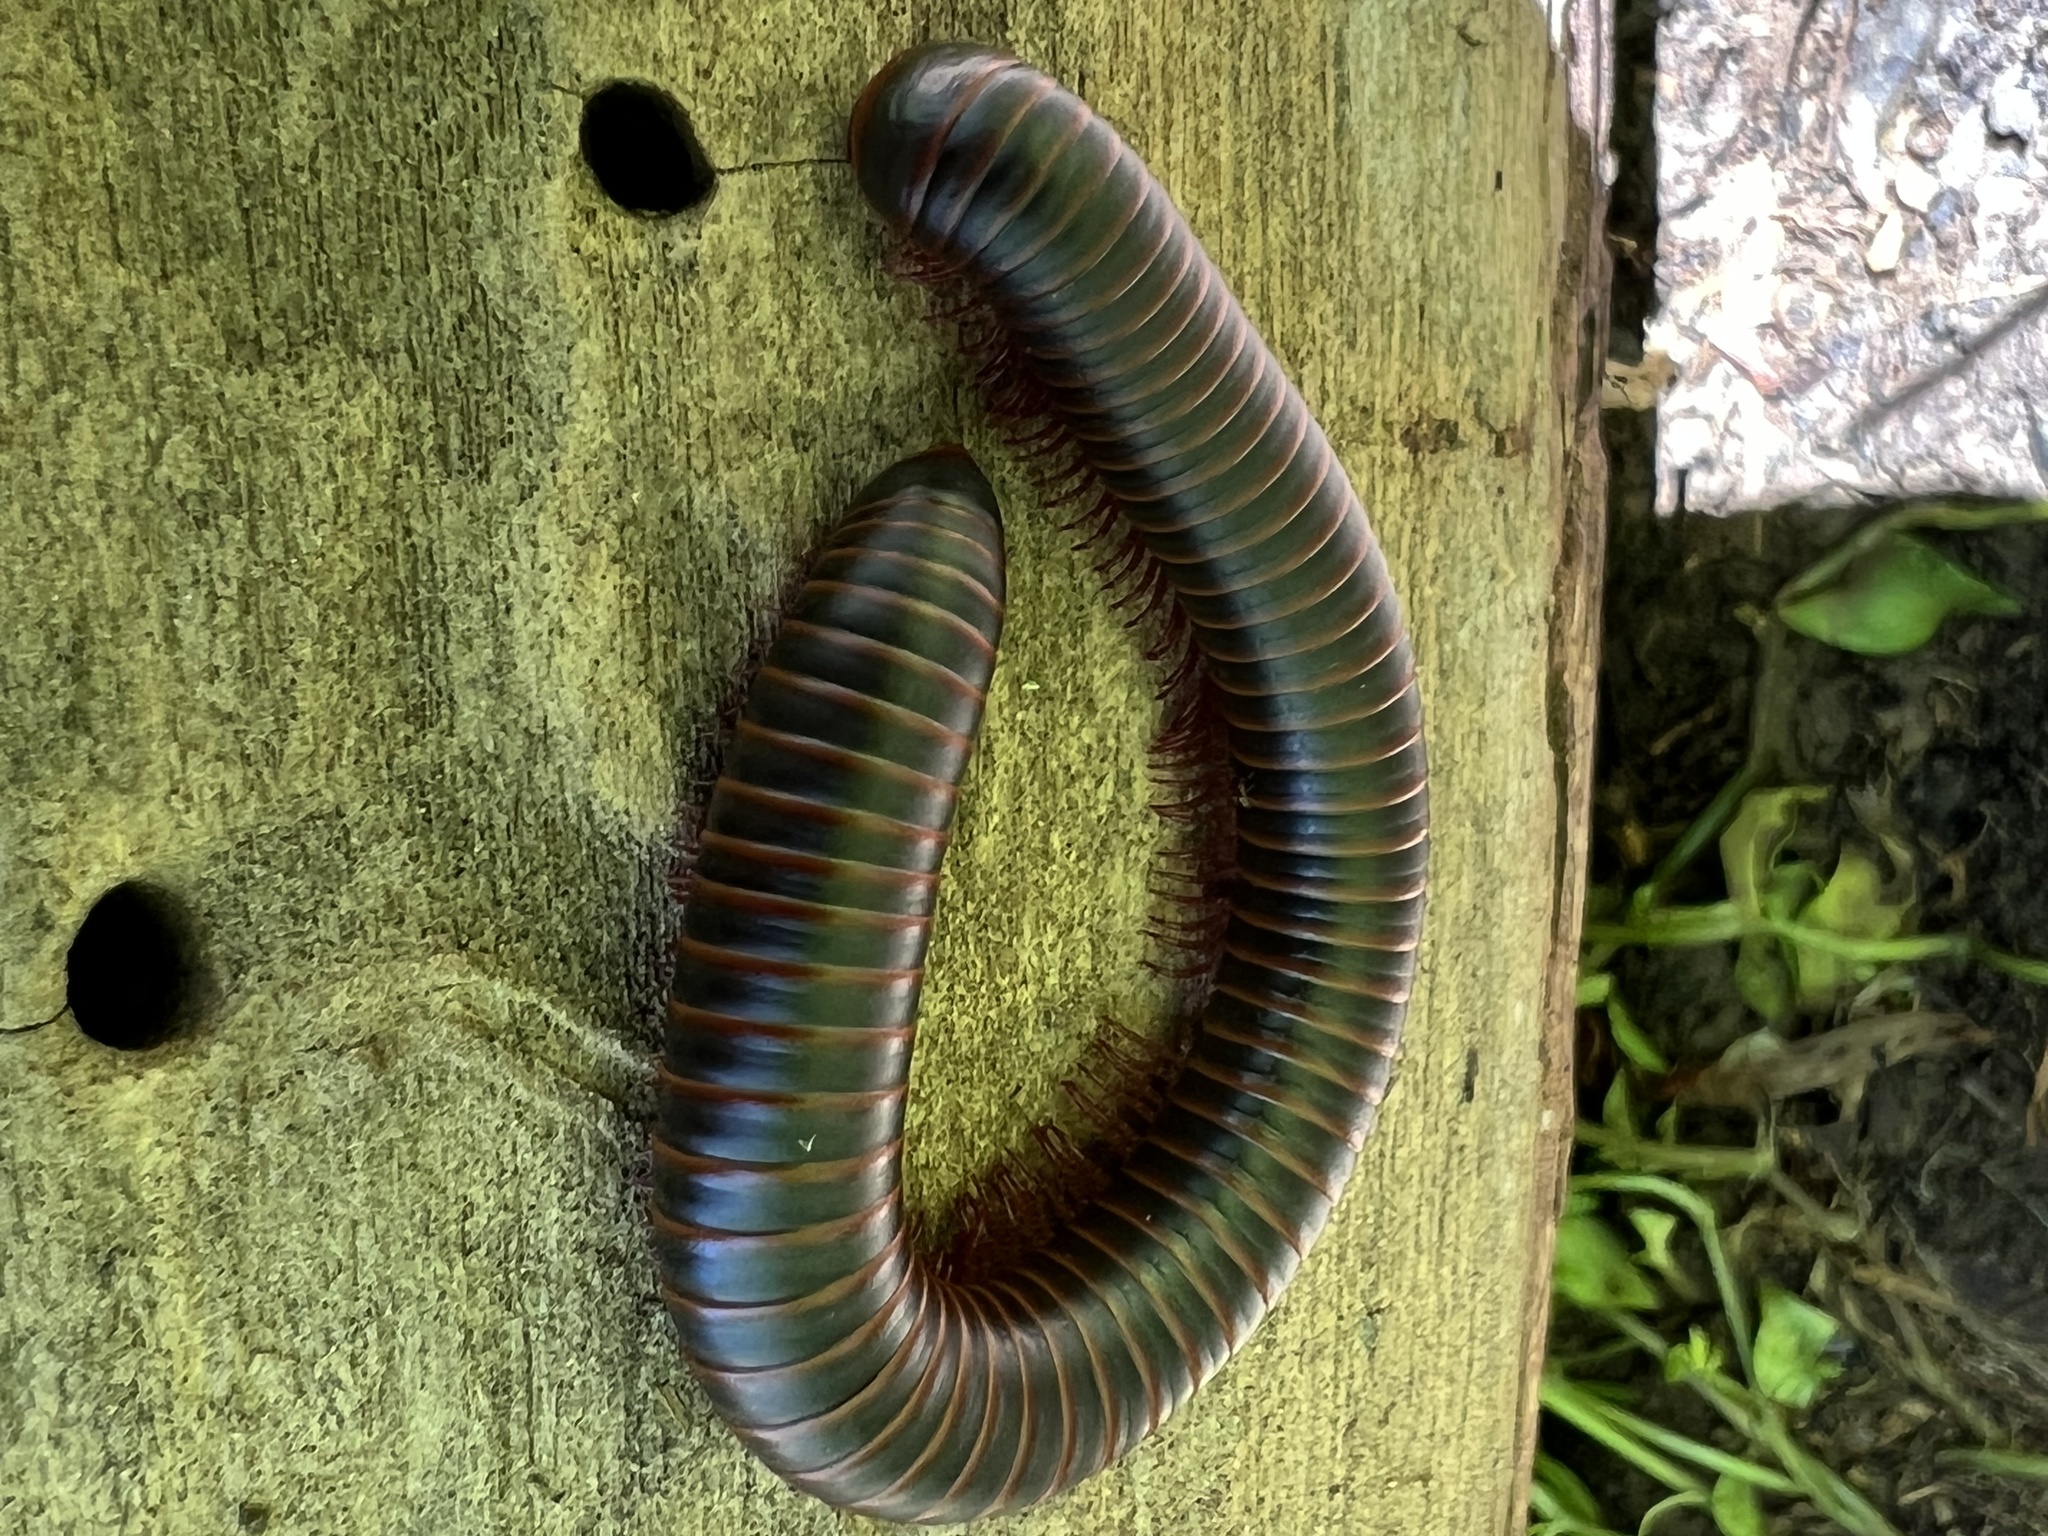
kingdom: Animalia
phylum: Arthropoda
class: Diplopoda
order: Spirobolida
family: Spirobolidae
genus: Narceus
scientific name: Narceus
